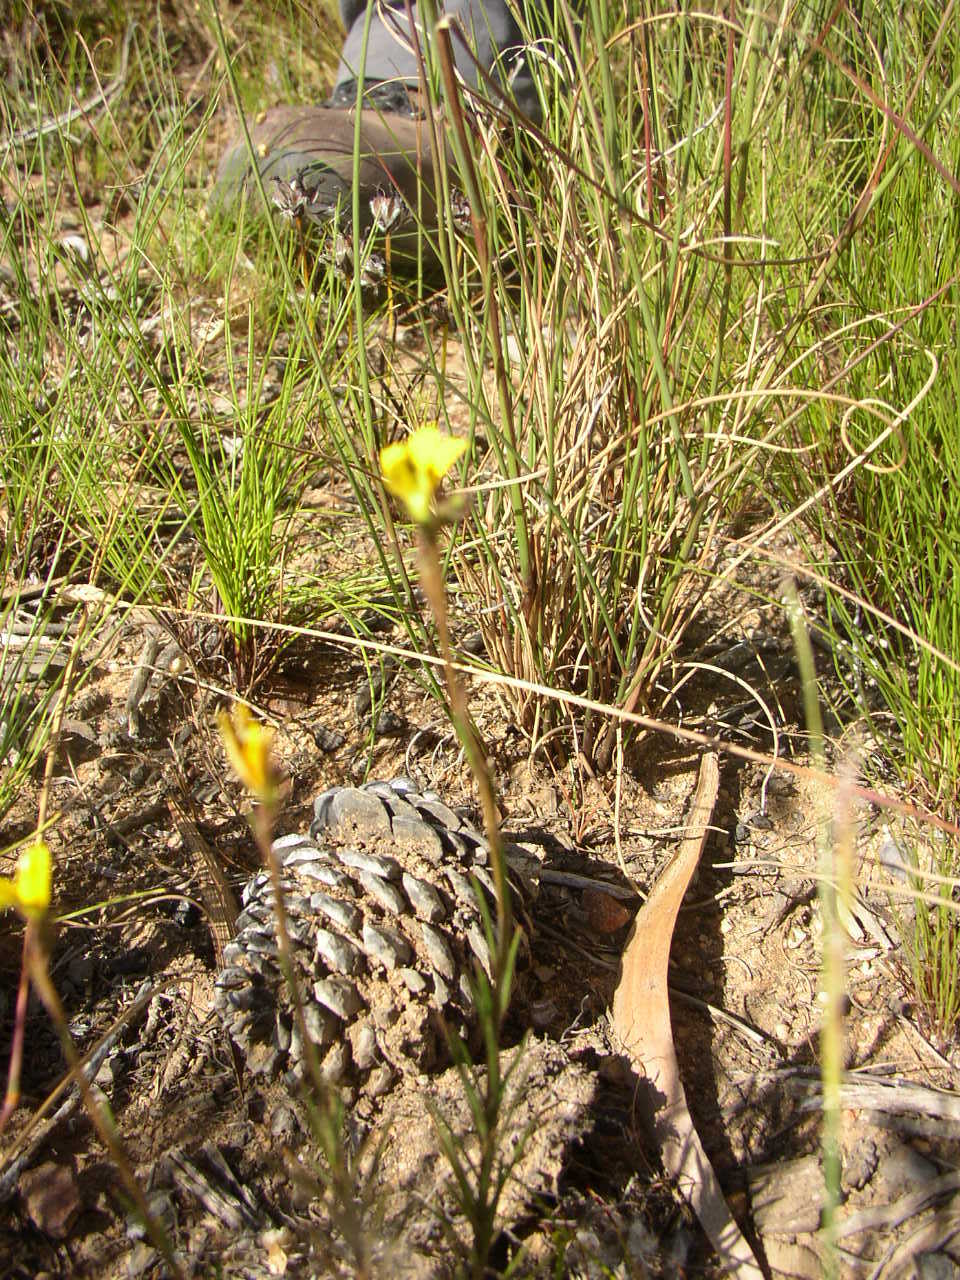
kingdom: Plantae
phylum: Tracheophyta
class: Magnoliopsida
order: Asterales
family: Campanulaceae
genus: Monopsis
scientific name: Monopsis lutea
